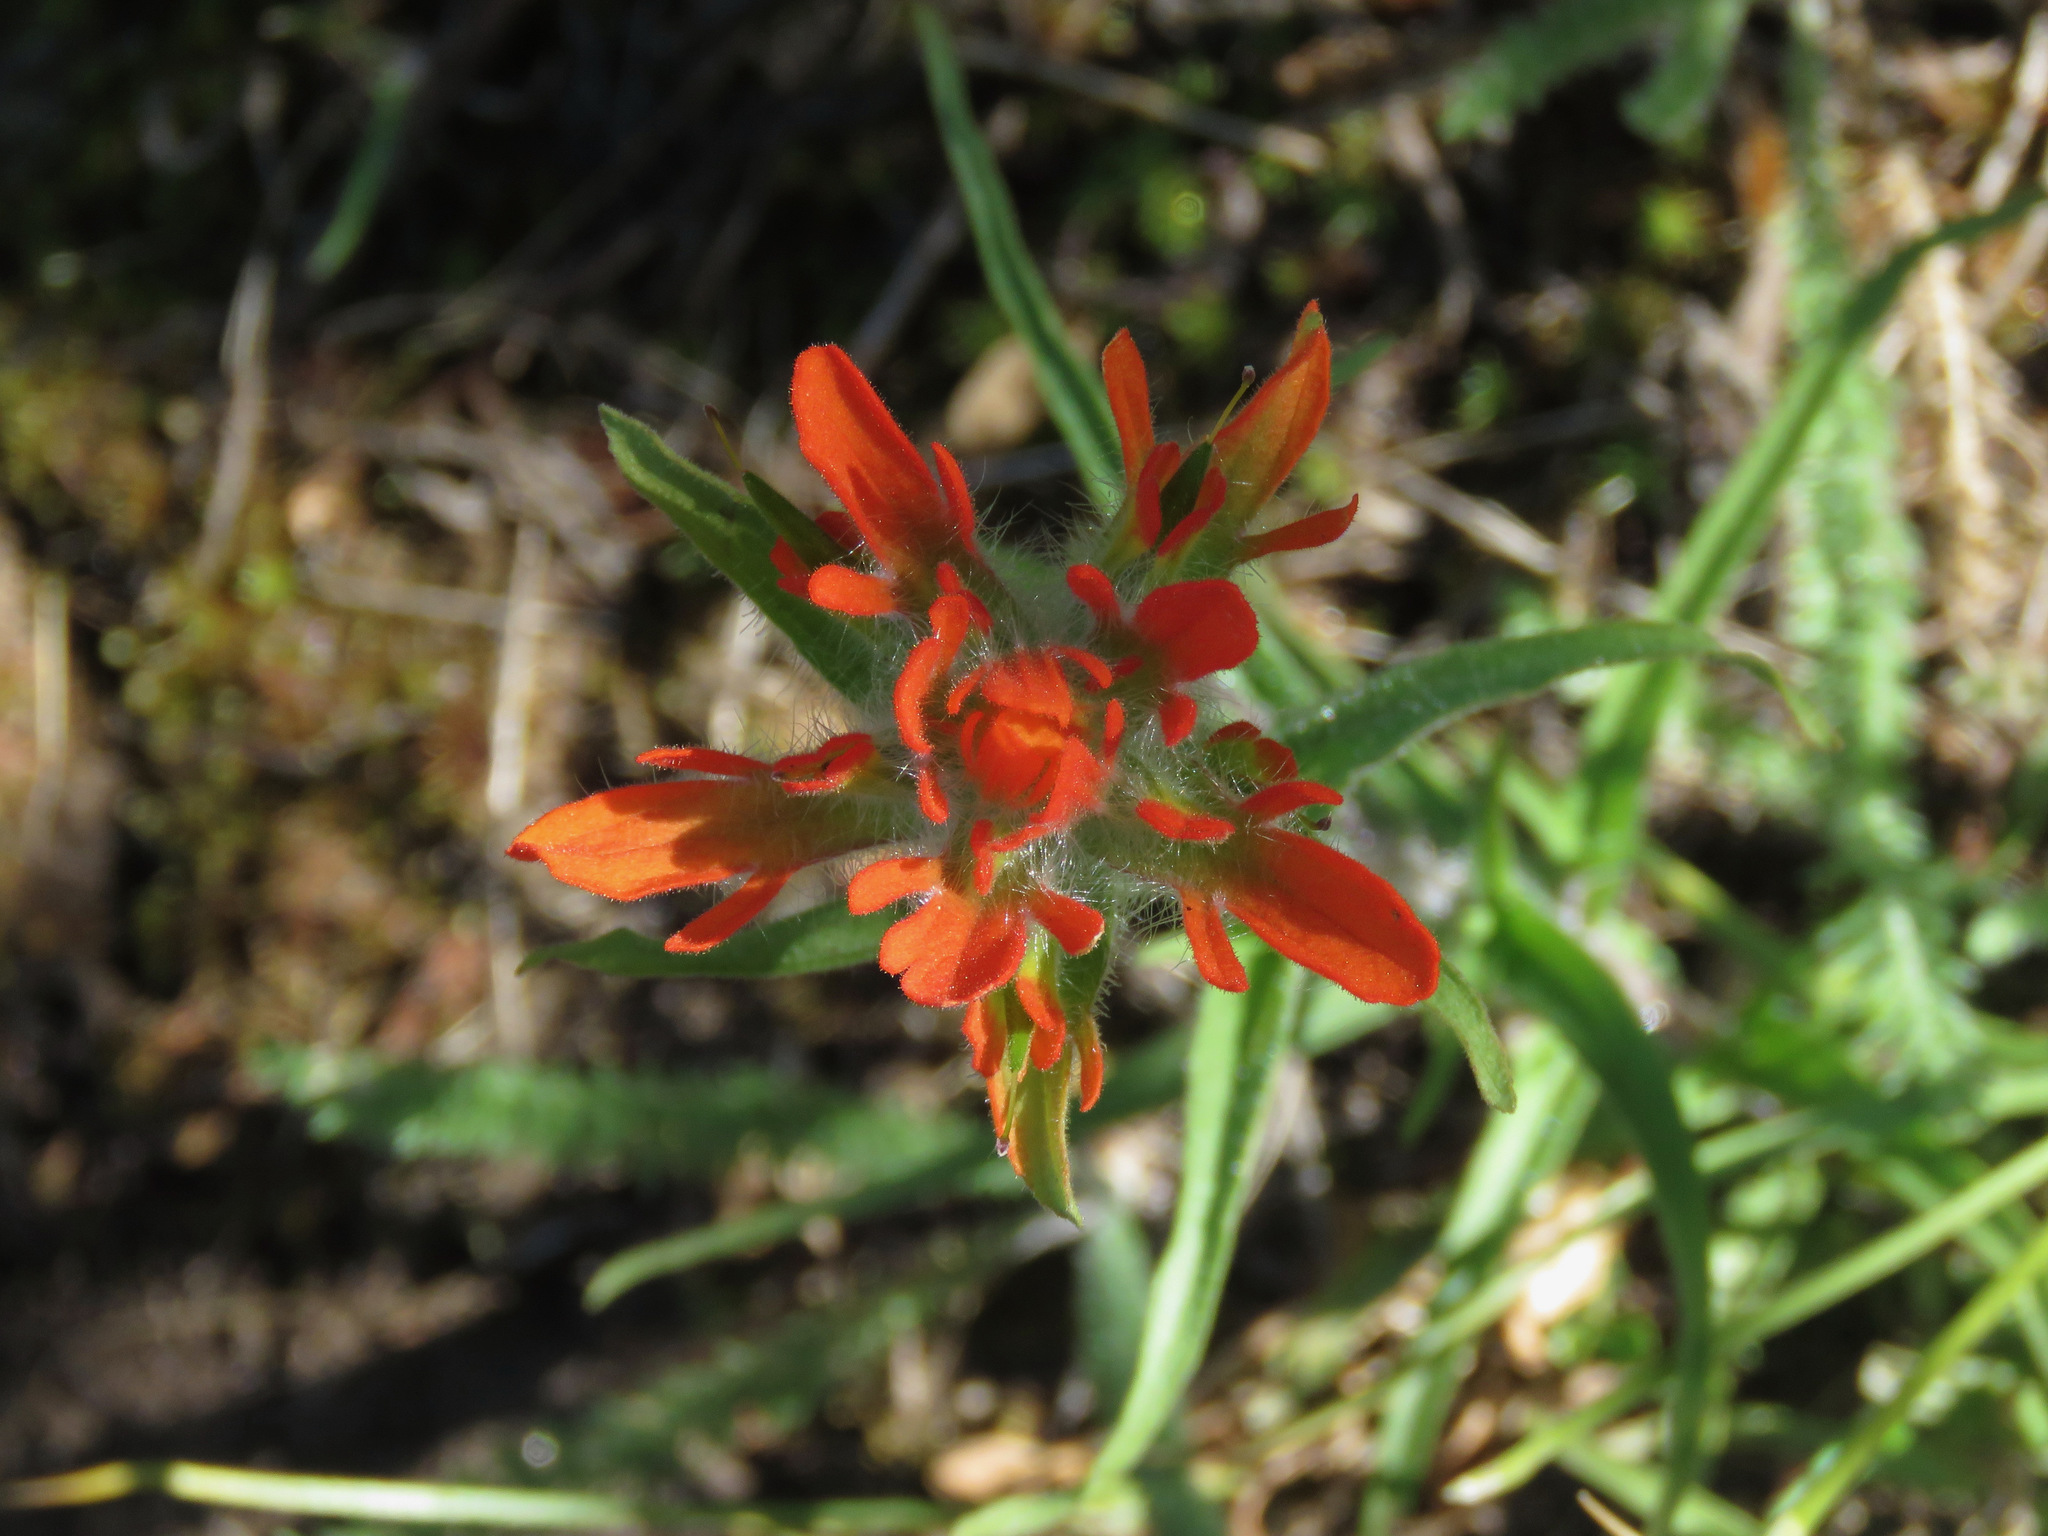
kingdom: Plantae
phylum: Tracheophyta
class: Magnoliopsida
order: Lamiales
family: Orobanchaceae
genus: Castilleja
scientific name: Castilleja hispida
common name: Bristly paintbrush
